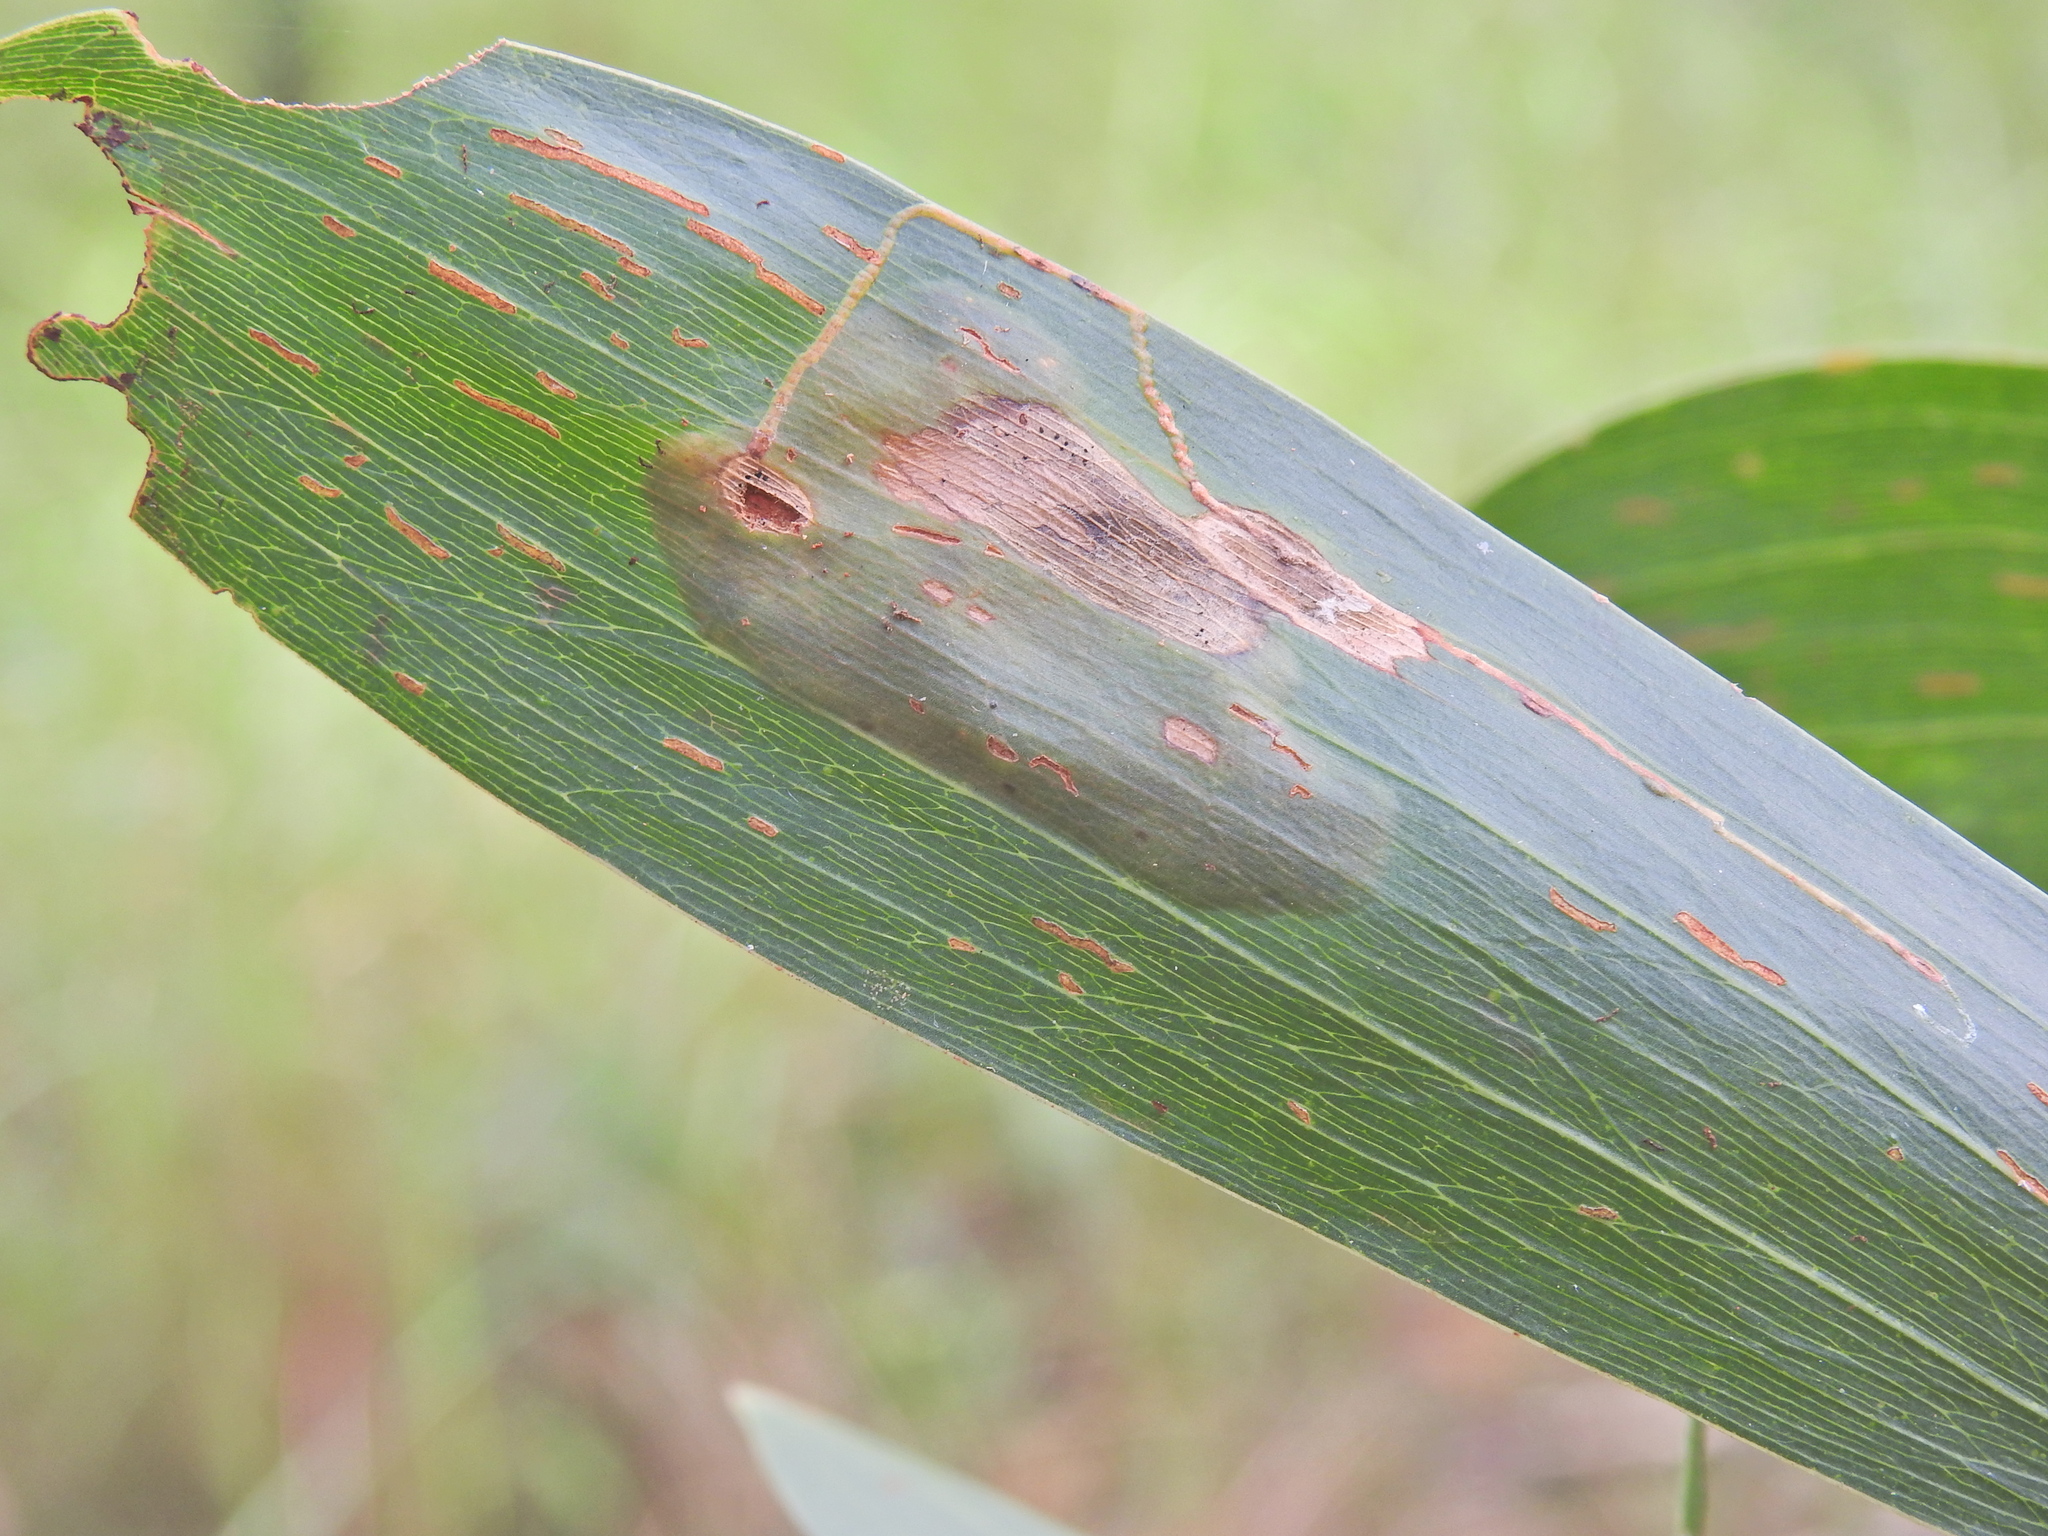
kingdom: Animalia
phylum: Arthropoda
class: Insecta
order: Lepidoptera
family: Gracillariidae
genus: Acrocercops
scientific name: Acrocercops didymella
